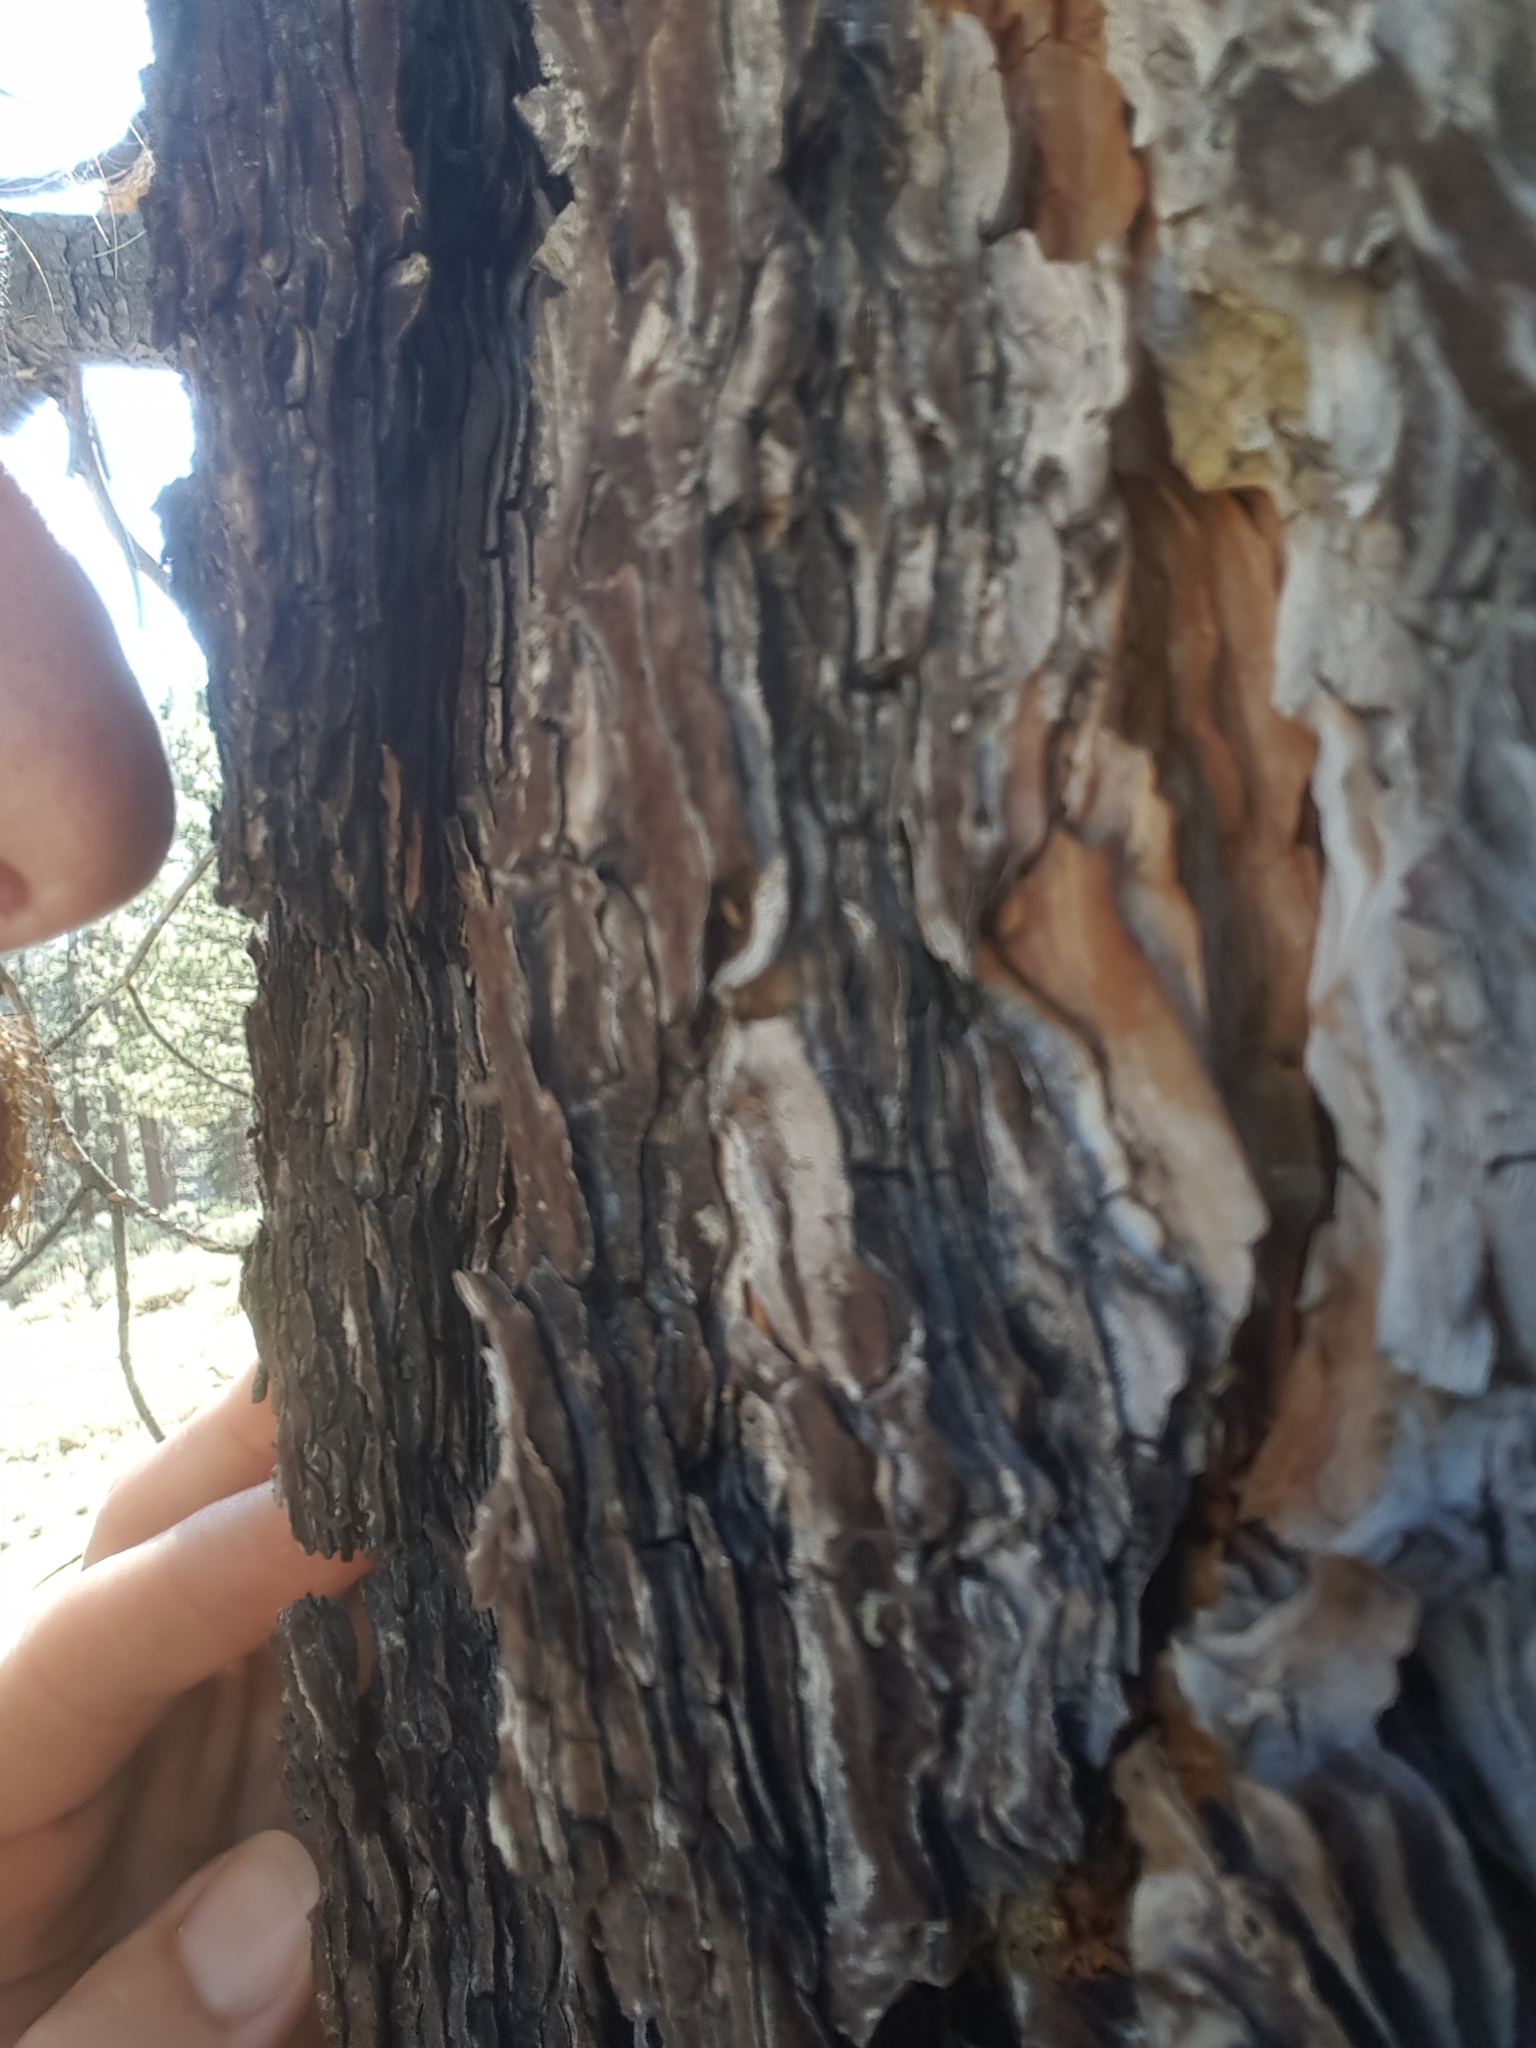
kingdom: Plantae
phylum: Tracheophyta
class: Pinopsida
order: Pinales
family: Pinaceae
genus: Pinus
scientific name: Pinus jeffreyi
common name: Jeffrey pine
